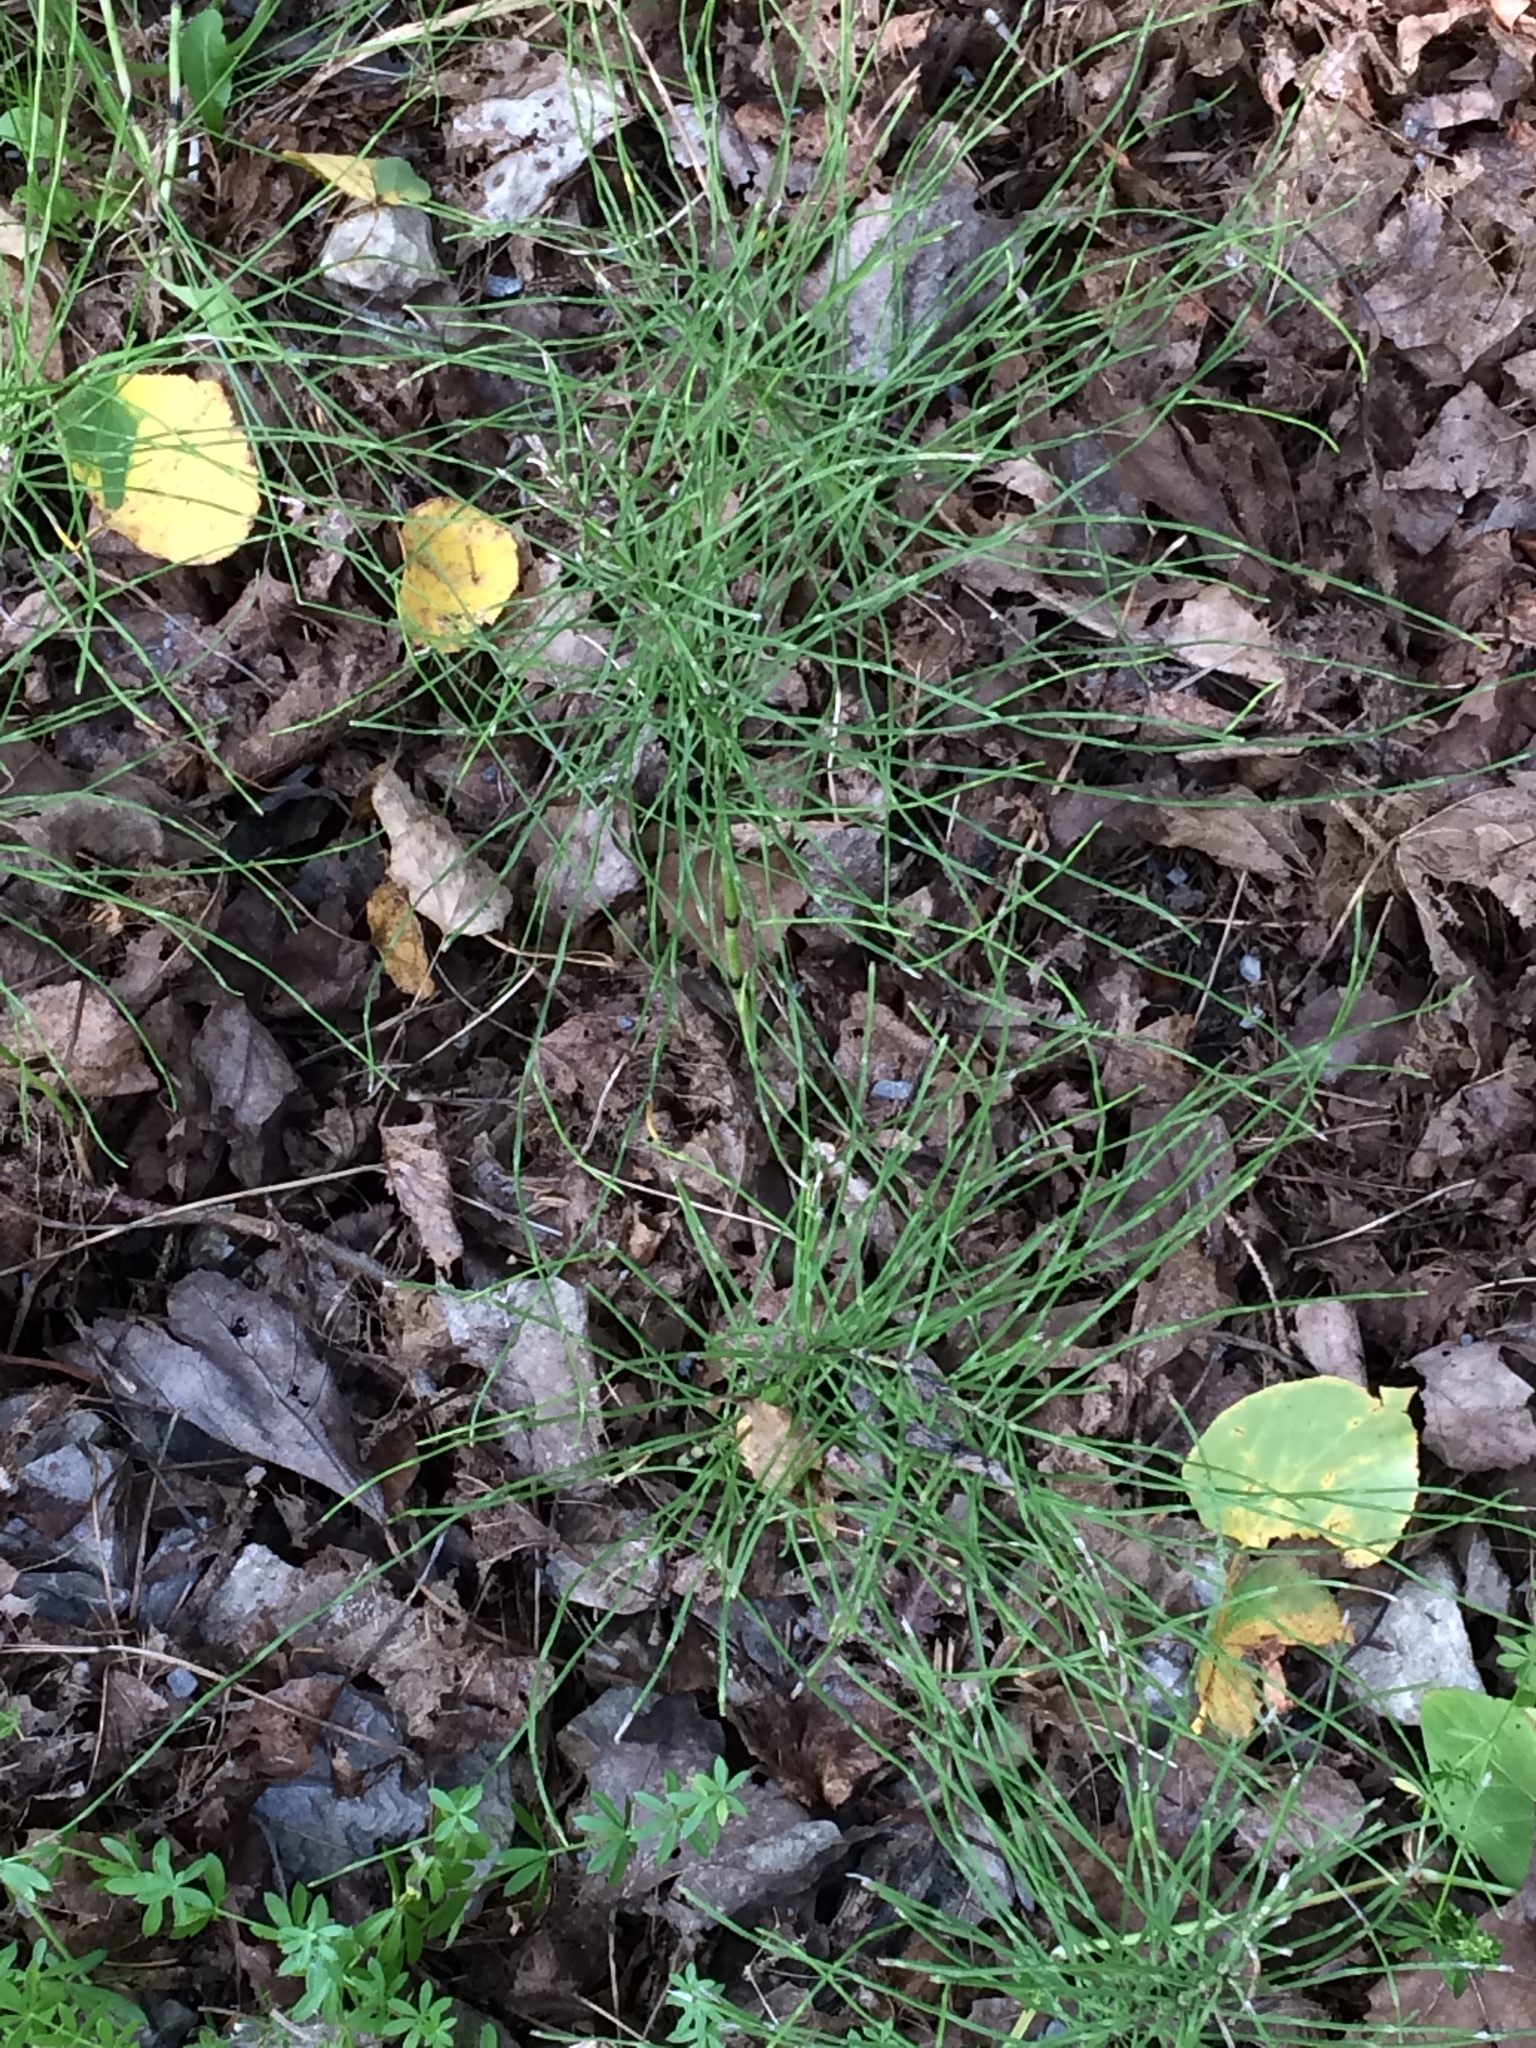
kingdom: Plantae
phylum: Tracheophyta
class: Polypodiopsida
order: Equisetales
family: Equisetaceae
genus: Equisetum
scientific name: Equisetum arvense
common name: Field horsetail
